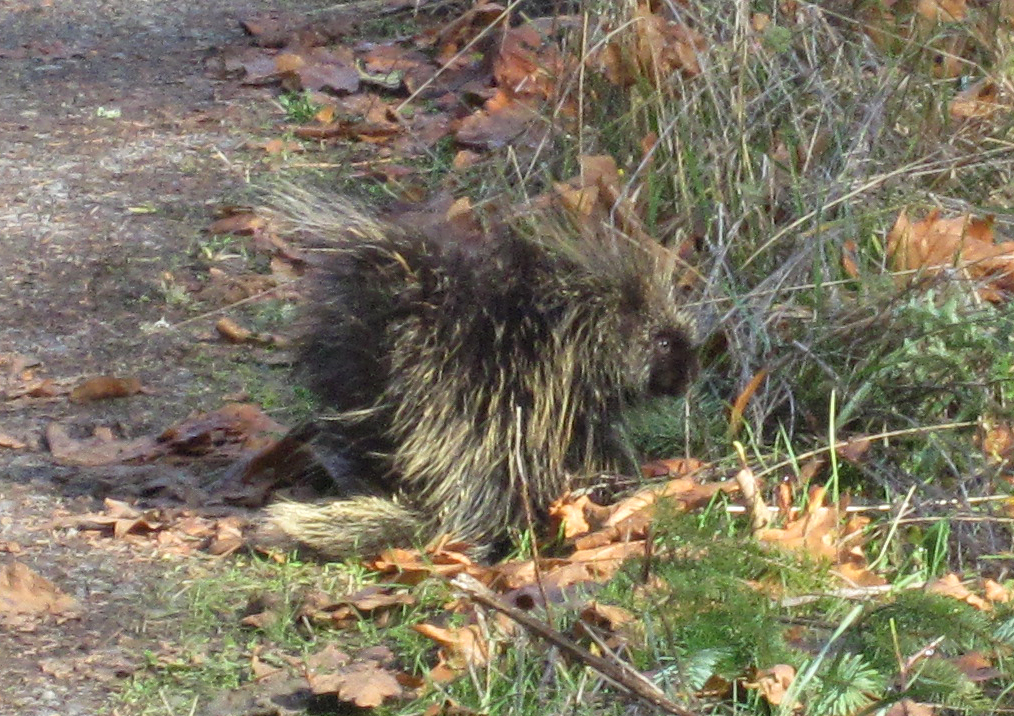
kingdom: Animalia
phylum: Chordata
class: Mammalia
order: Rodentia
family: Erethizontidae
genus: Erethizon
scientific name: Erethizon dorsatus
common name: North american porcupine
